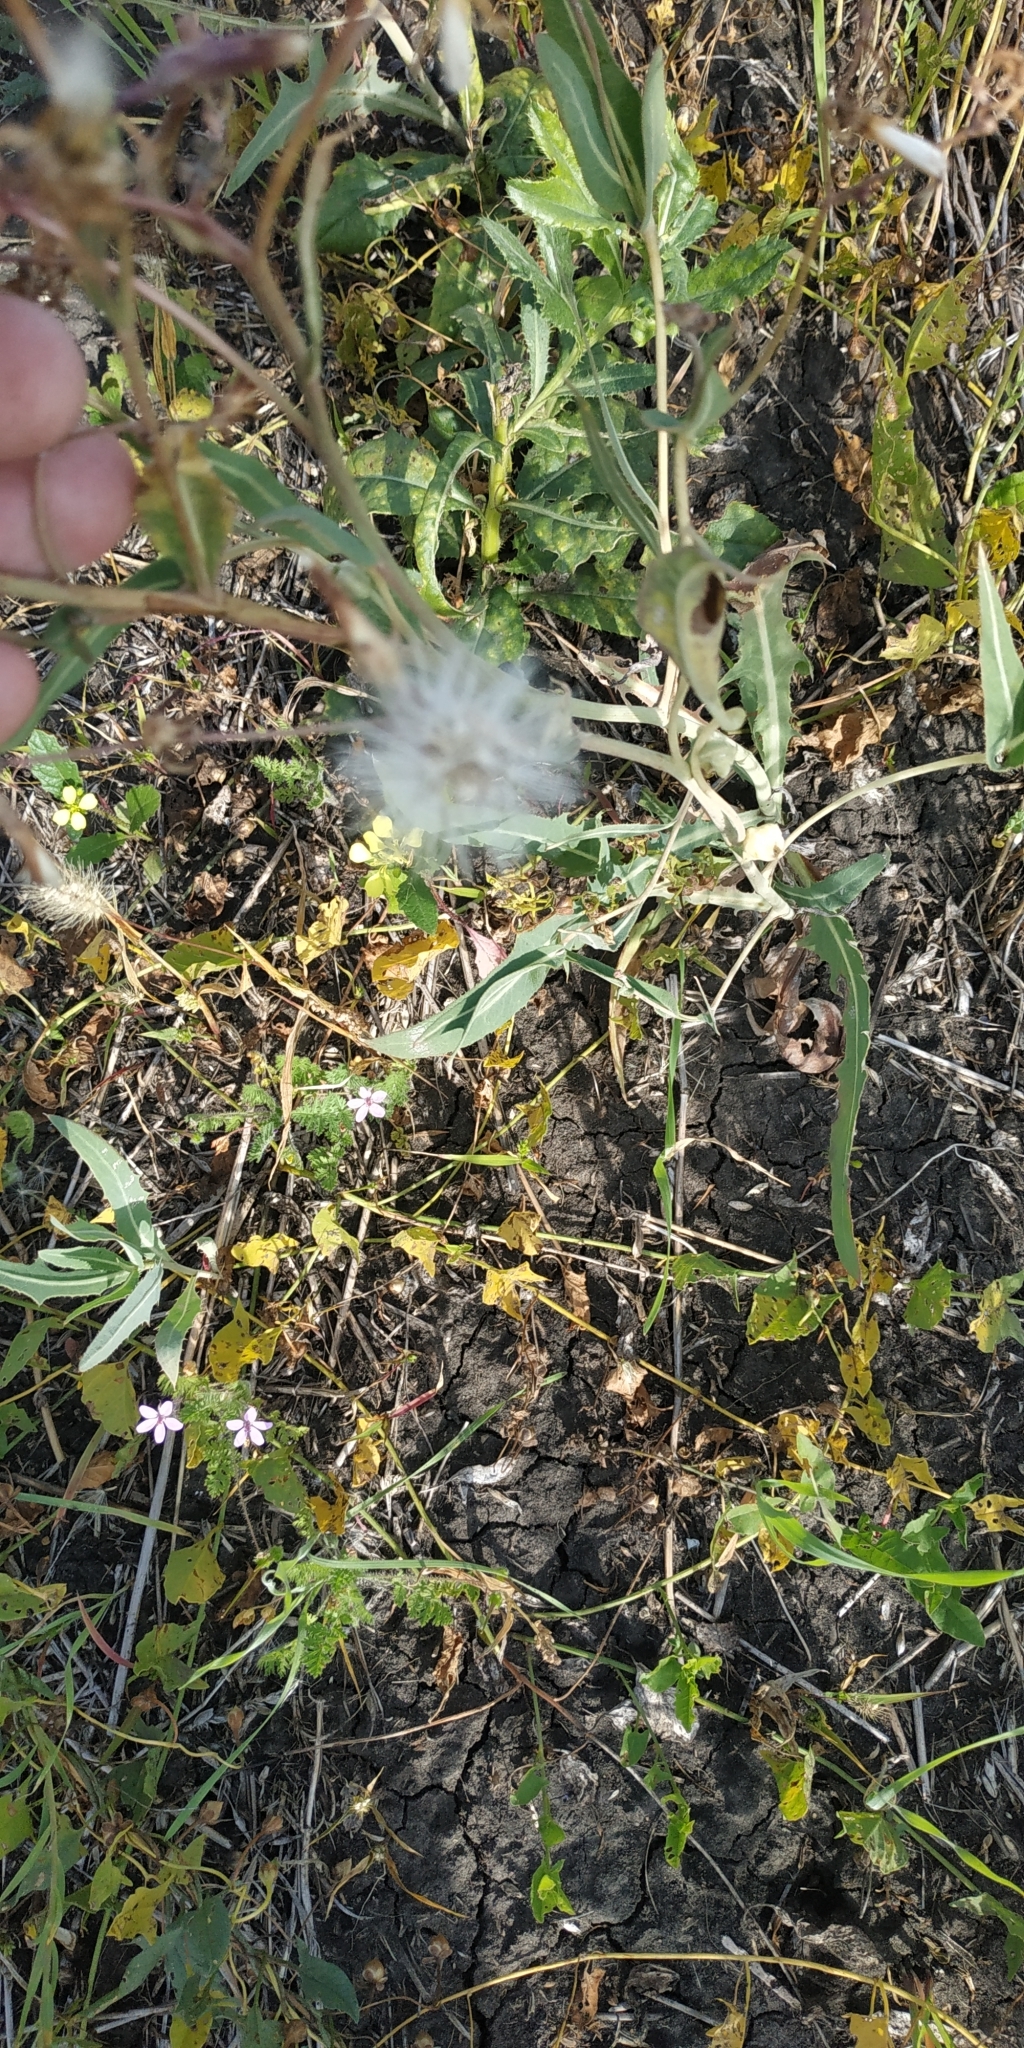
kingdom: Plantae
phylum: Tracheophyta
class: Magnoliopsida
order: Asterales
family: Asteraceae
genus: Lactuca
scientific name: Lactuca tatarica
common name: Blue lettuce
